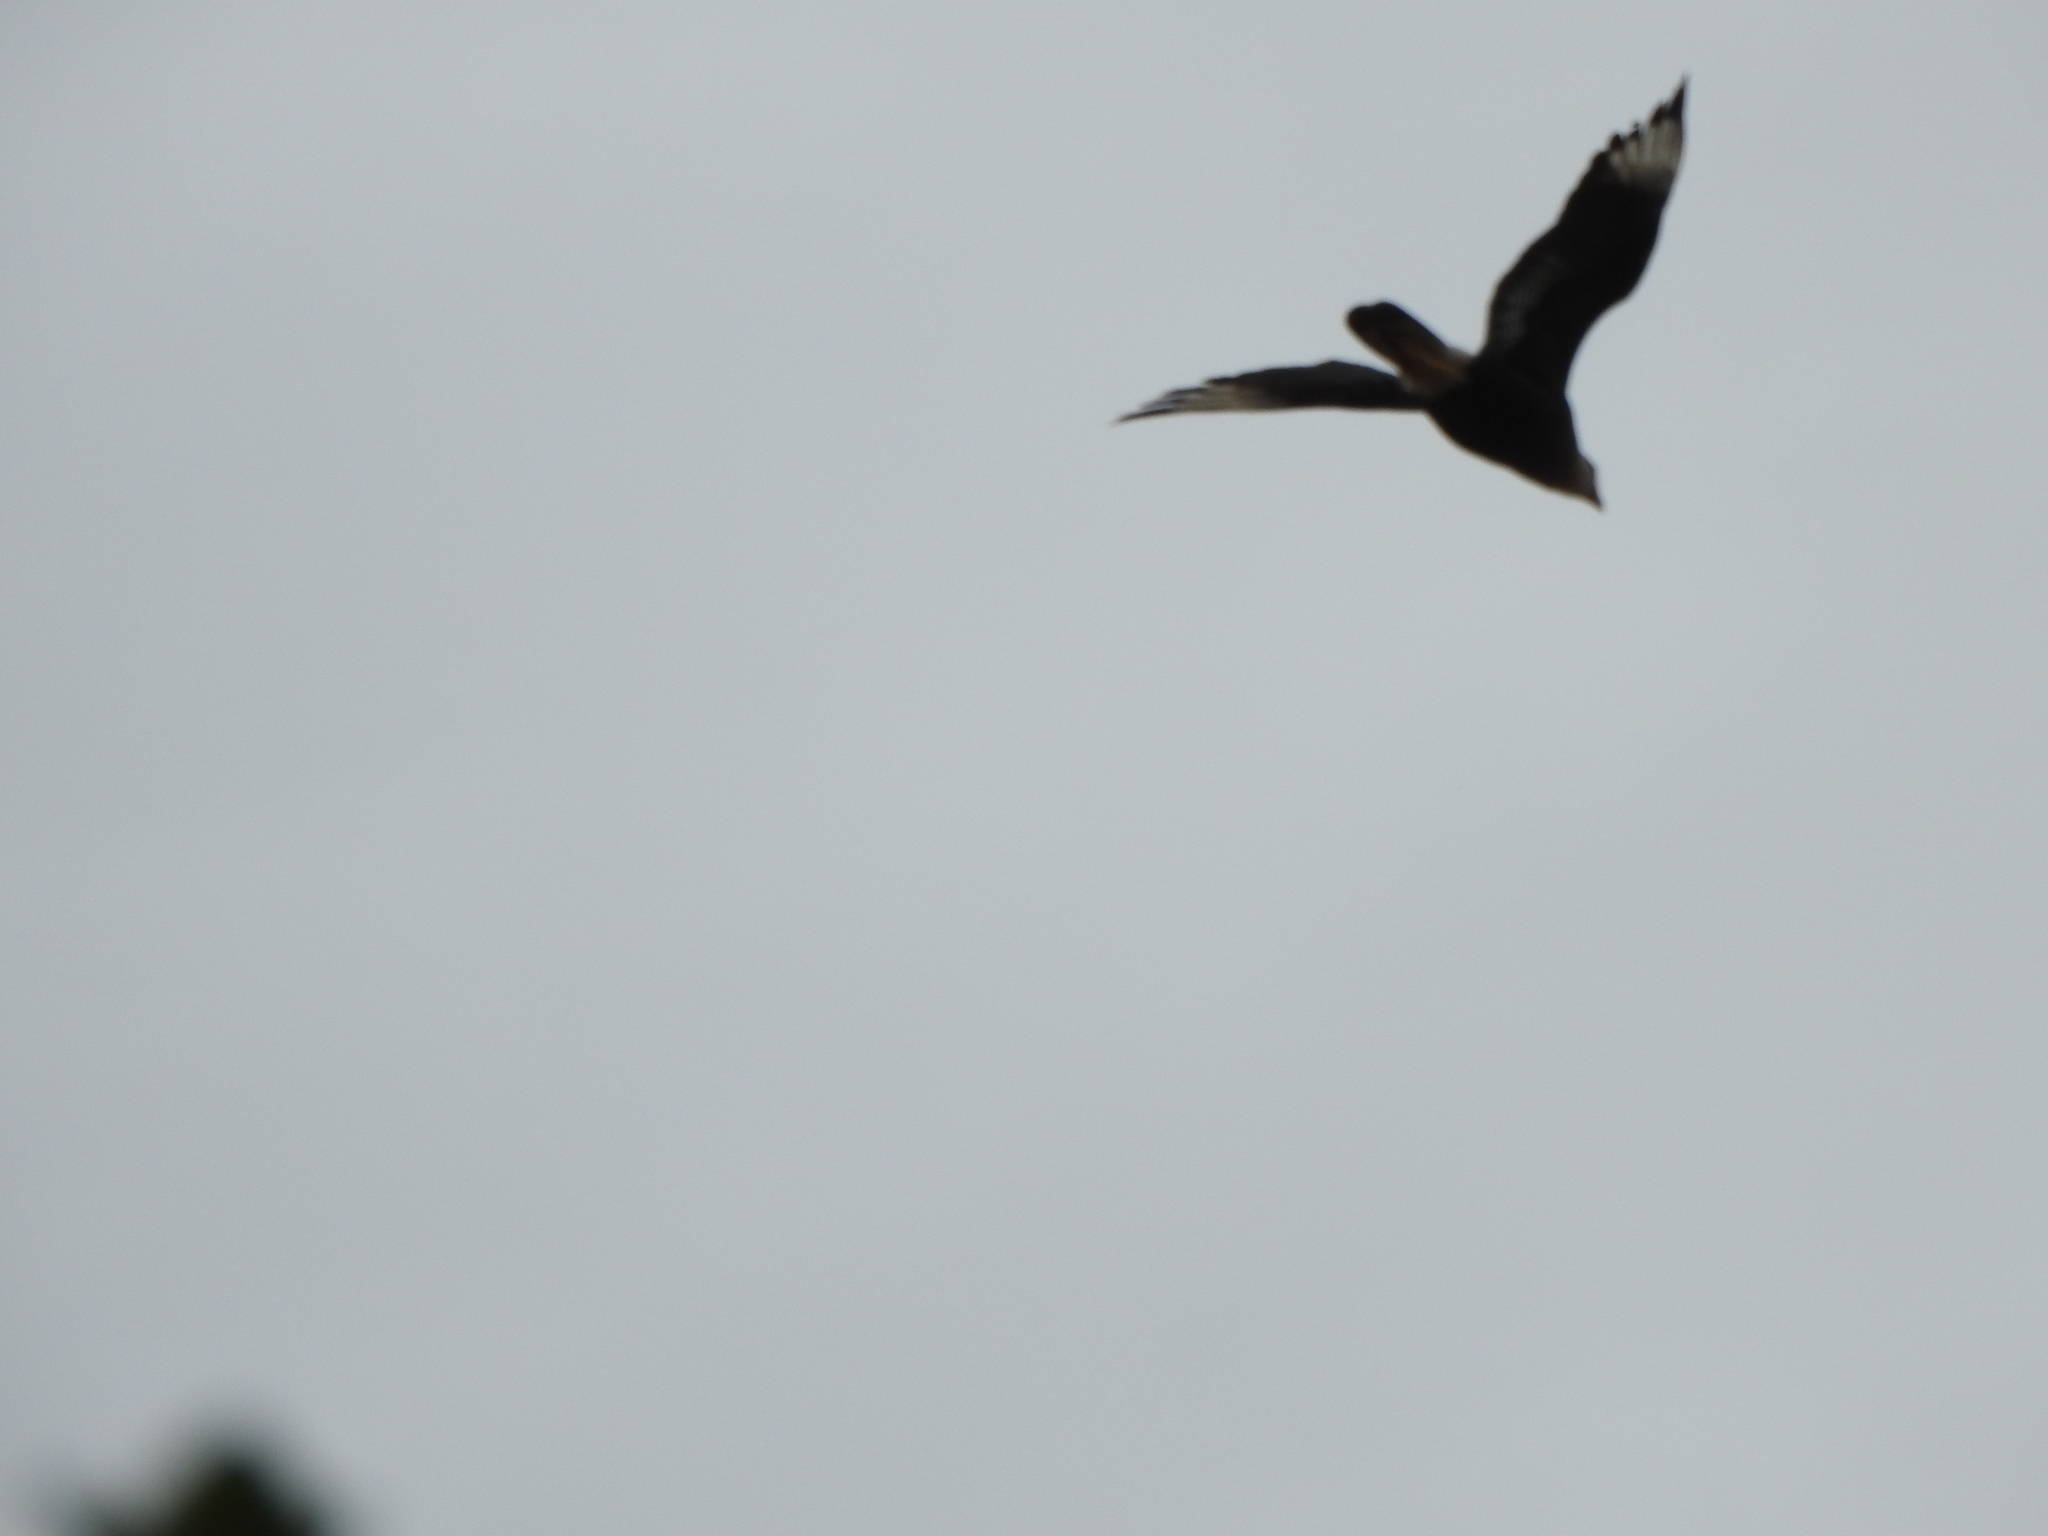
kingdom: Animalia
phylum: Chordata
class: Aves
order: Falconiformes
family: Falconidae
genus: Caracara
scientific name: Caracara plancus
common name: Southern caracara
